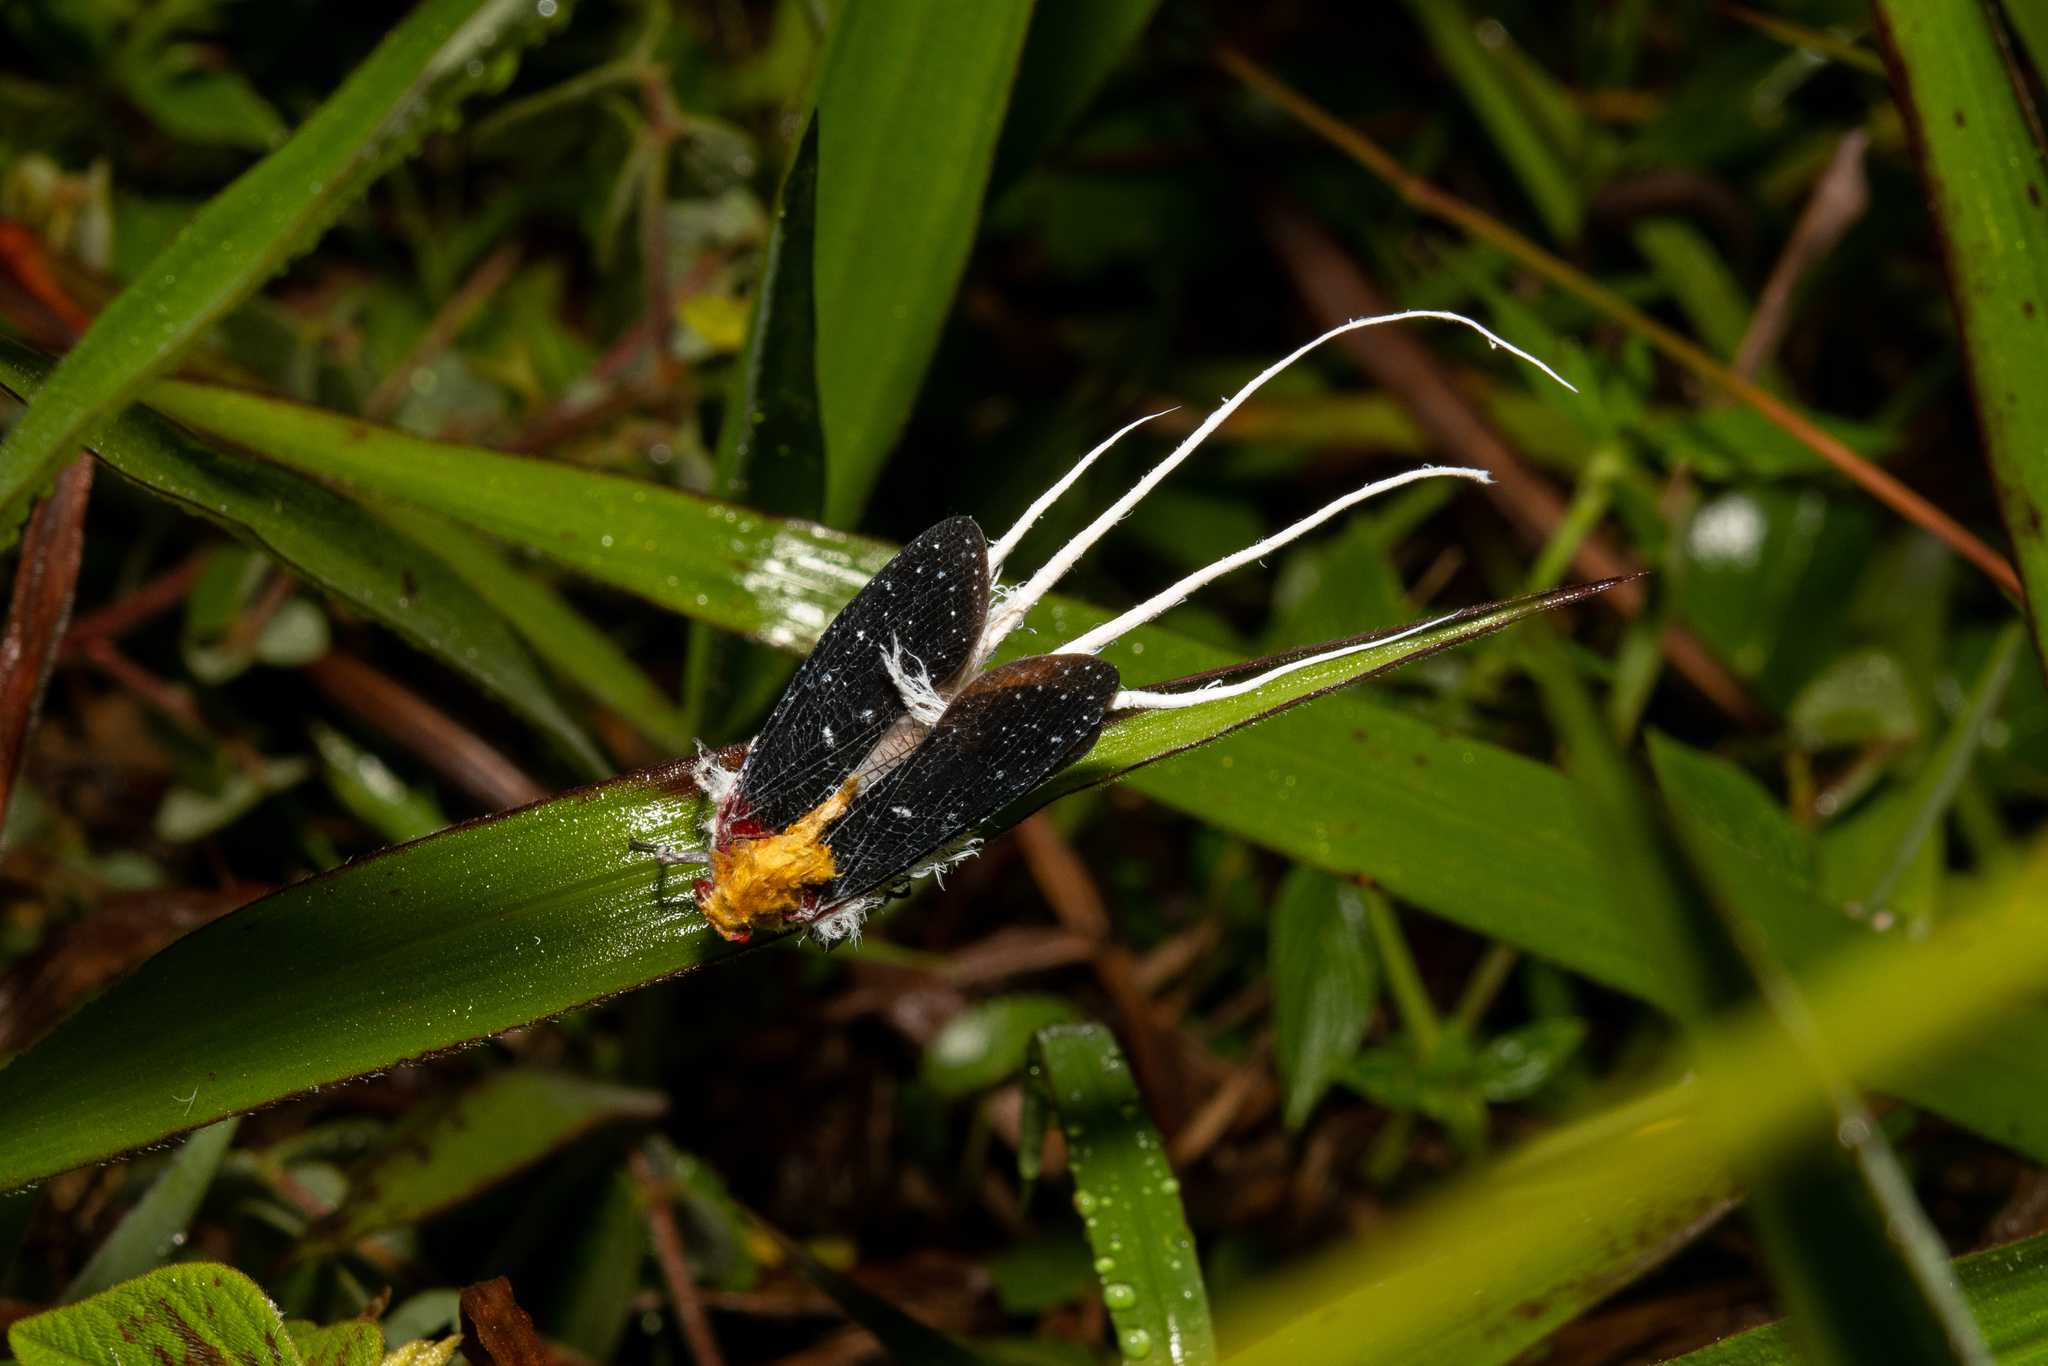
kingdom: Animalia
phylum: Arthropoda
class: Insecta
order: Hemiptera
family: Fulgoridae
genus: Cerogenes
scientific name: Cerogenes auricoma
